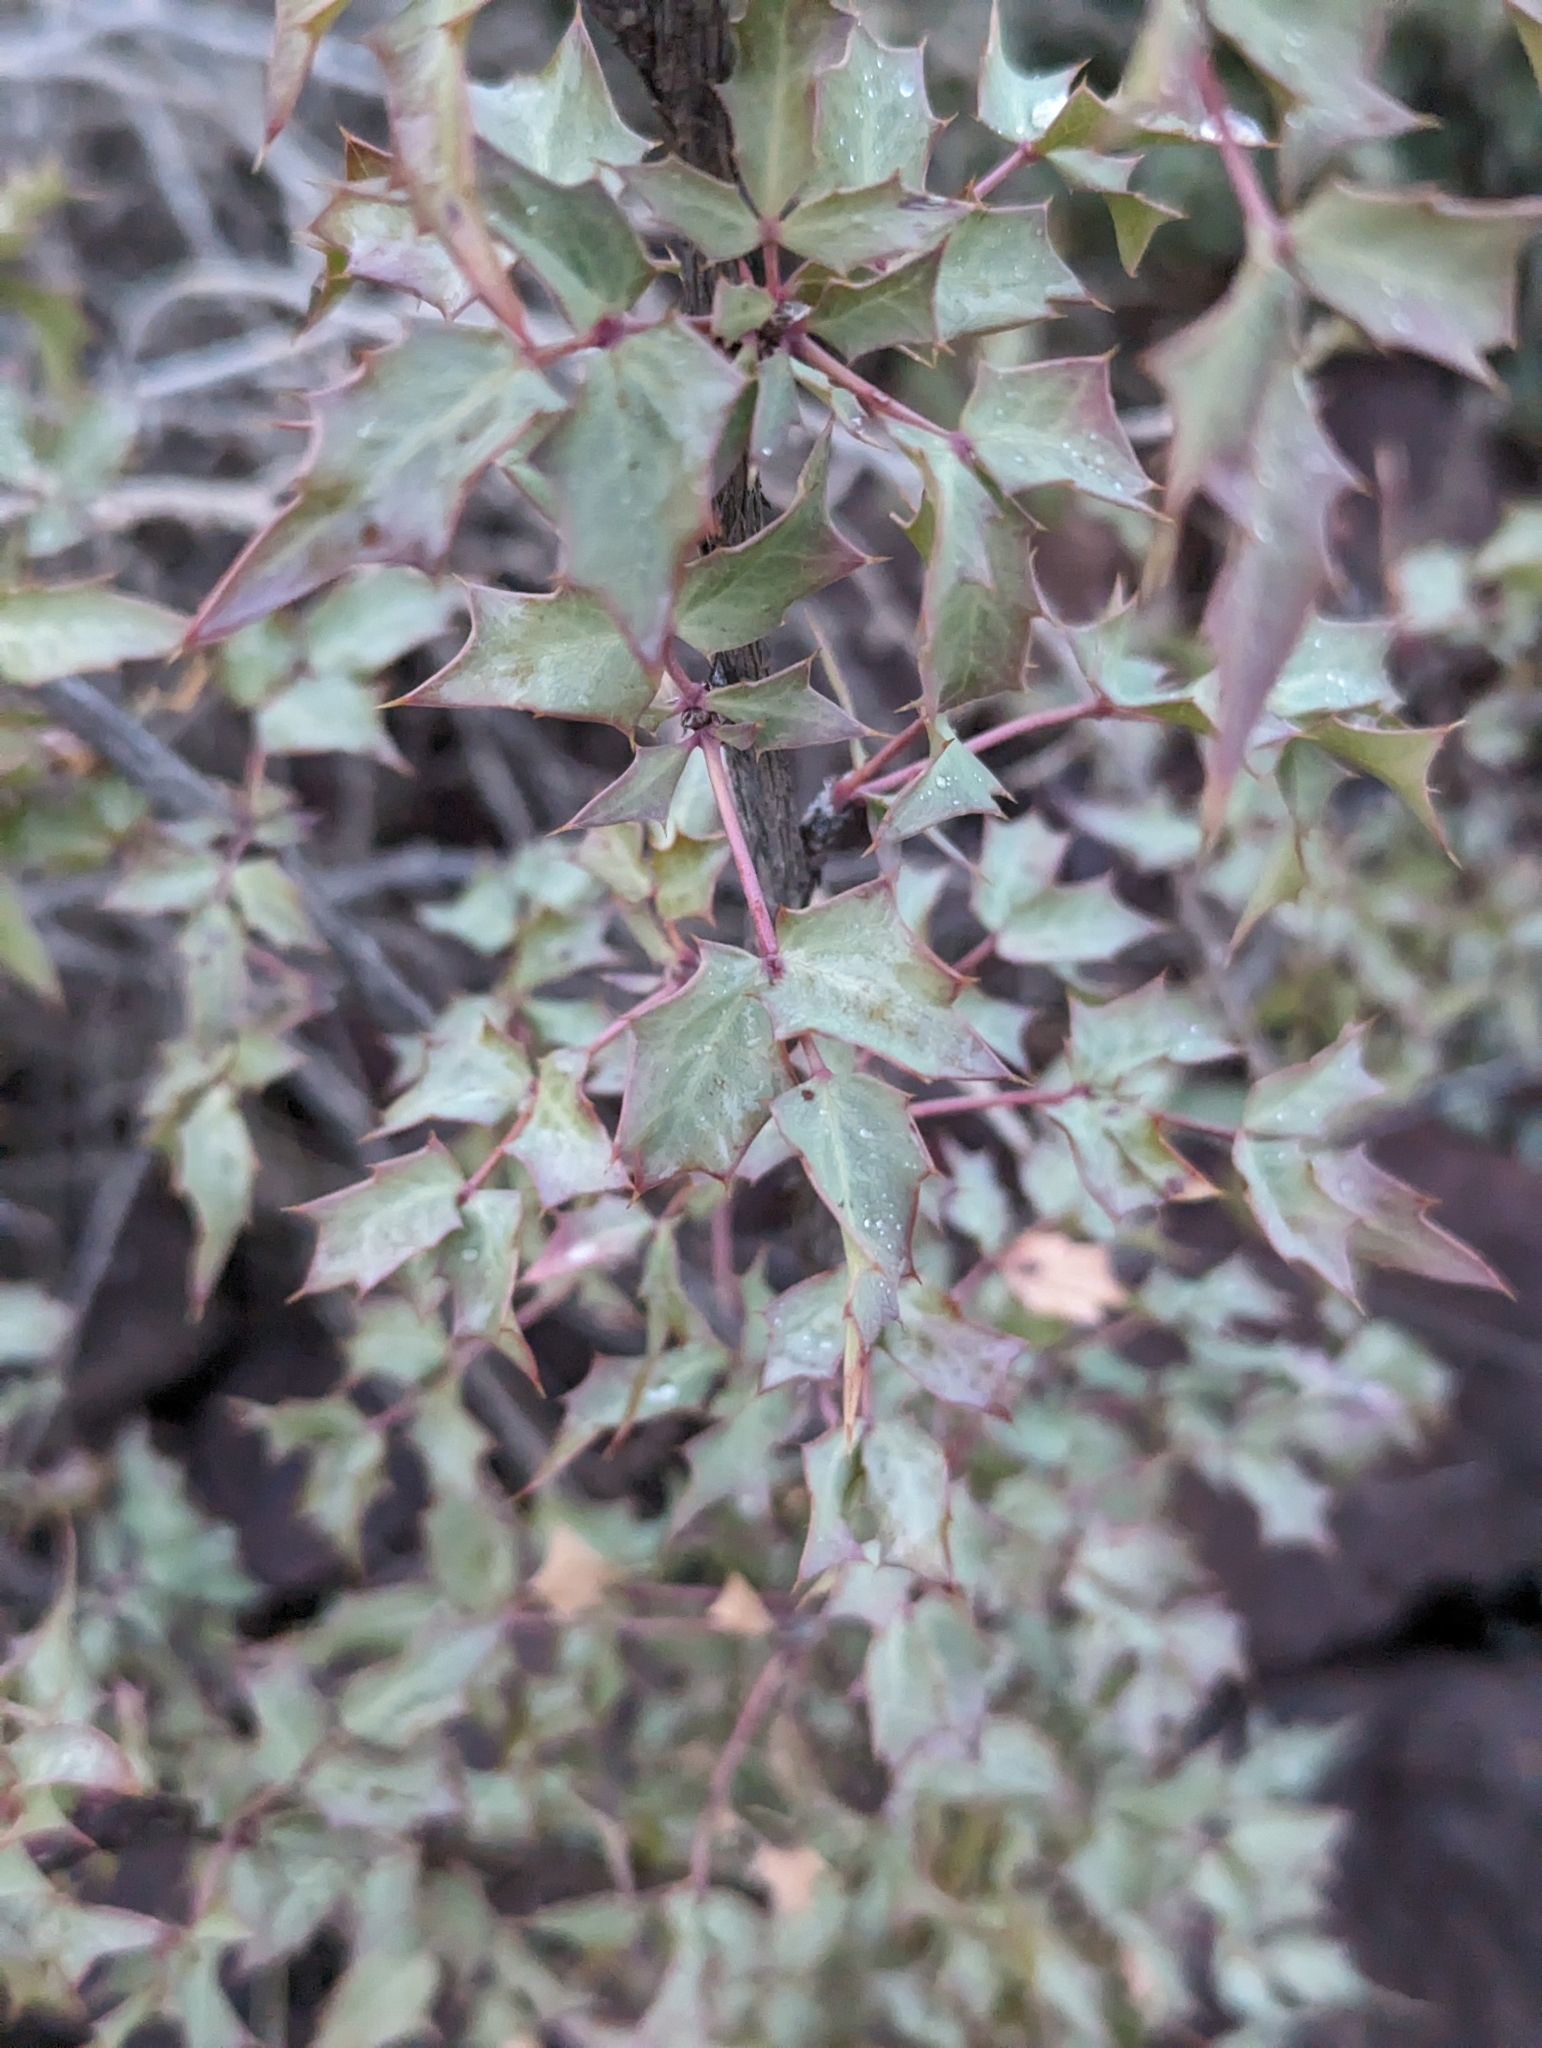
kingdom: Plantae
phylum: Tracheophyta
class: Magnoliopsida
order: Ranunculales
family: Berberidaceae
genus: Alloberberis
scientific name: Alloberberis fremontii
